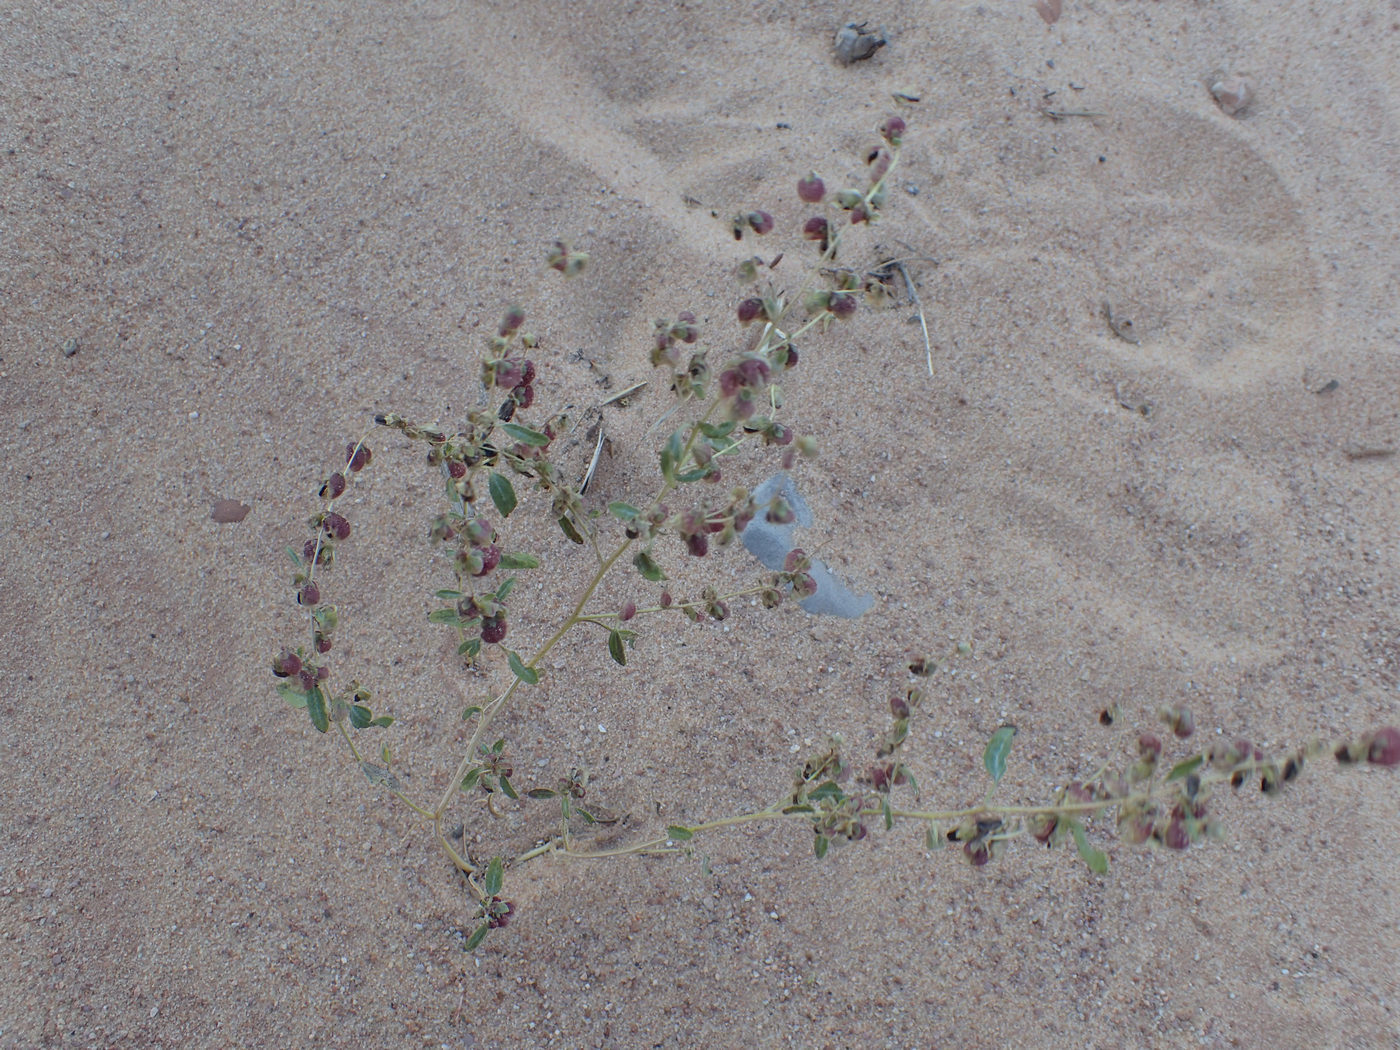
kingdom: Plantae
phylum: Tracheophyta
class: Magnoliopsida
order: Asterales
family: Asteraceae
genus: Dicoria
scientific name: Dicoria canescens
